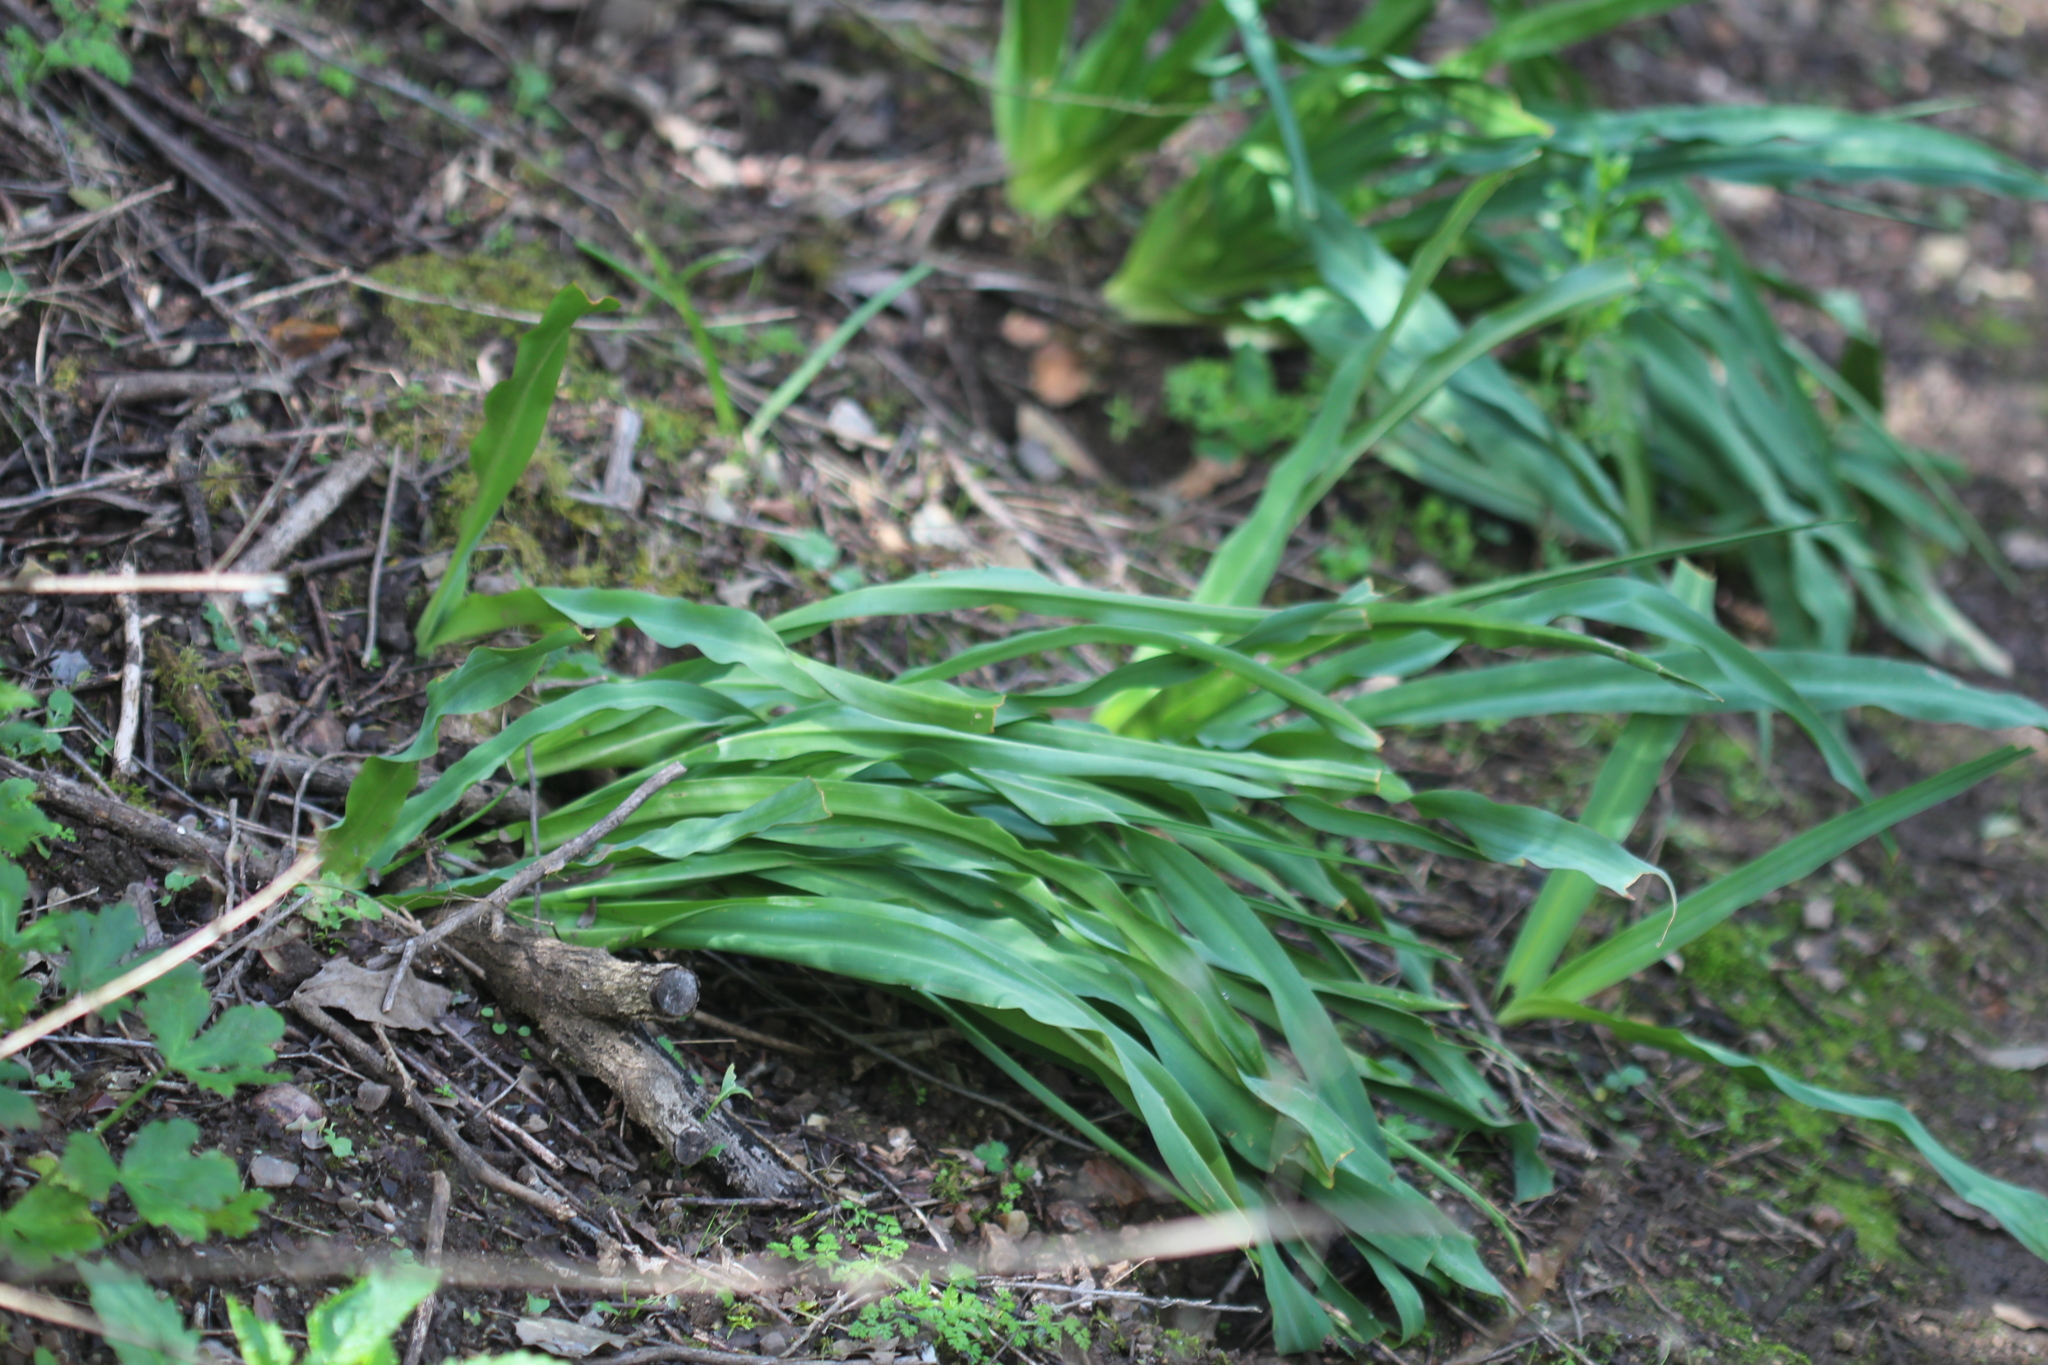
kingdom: Plantae
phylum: Tracheophyta
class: Liliopsida
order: Asparagales
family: Asparagaceae
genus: Chlorogalum
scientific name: Chlorogalum pomeridianum
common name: Amole
